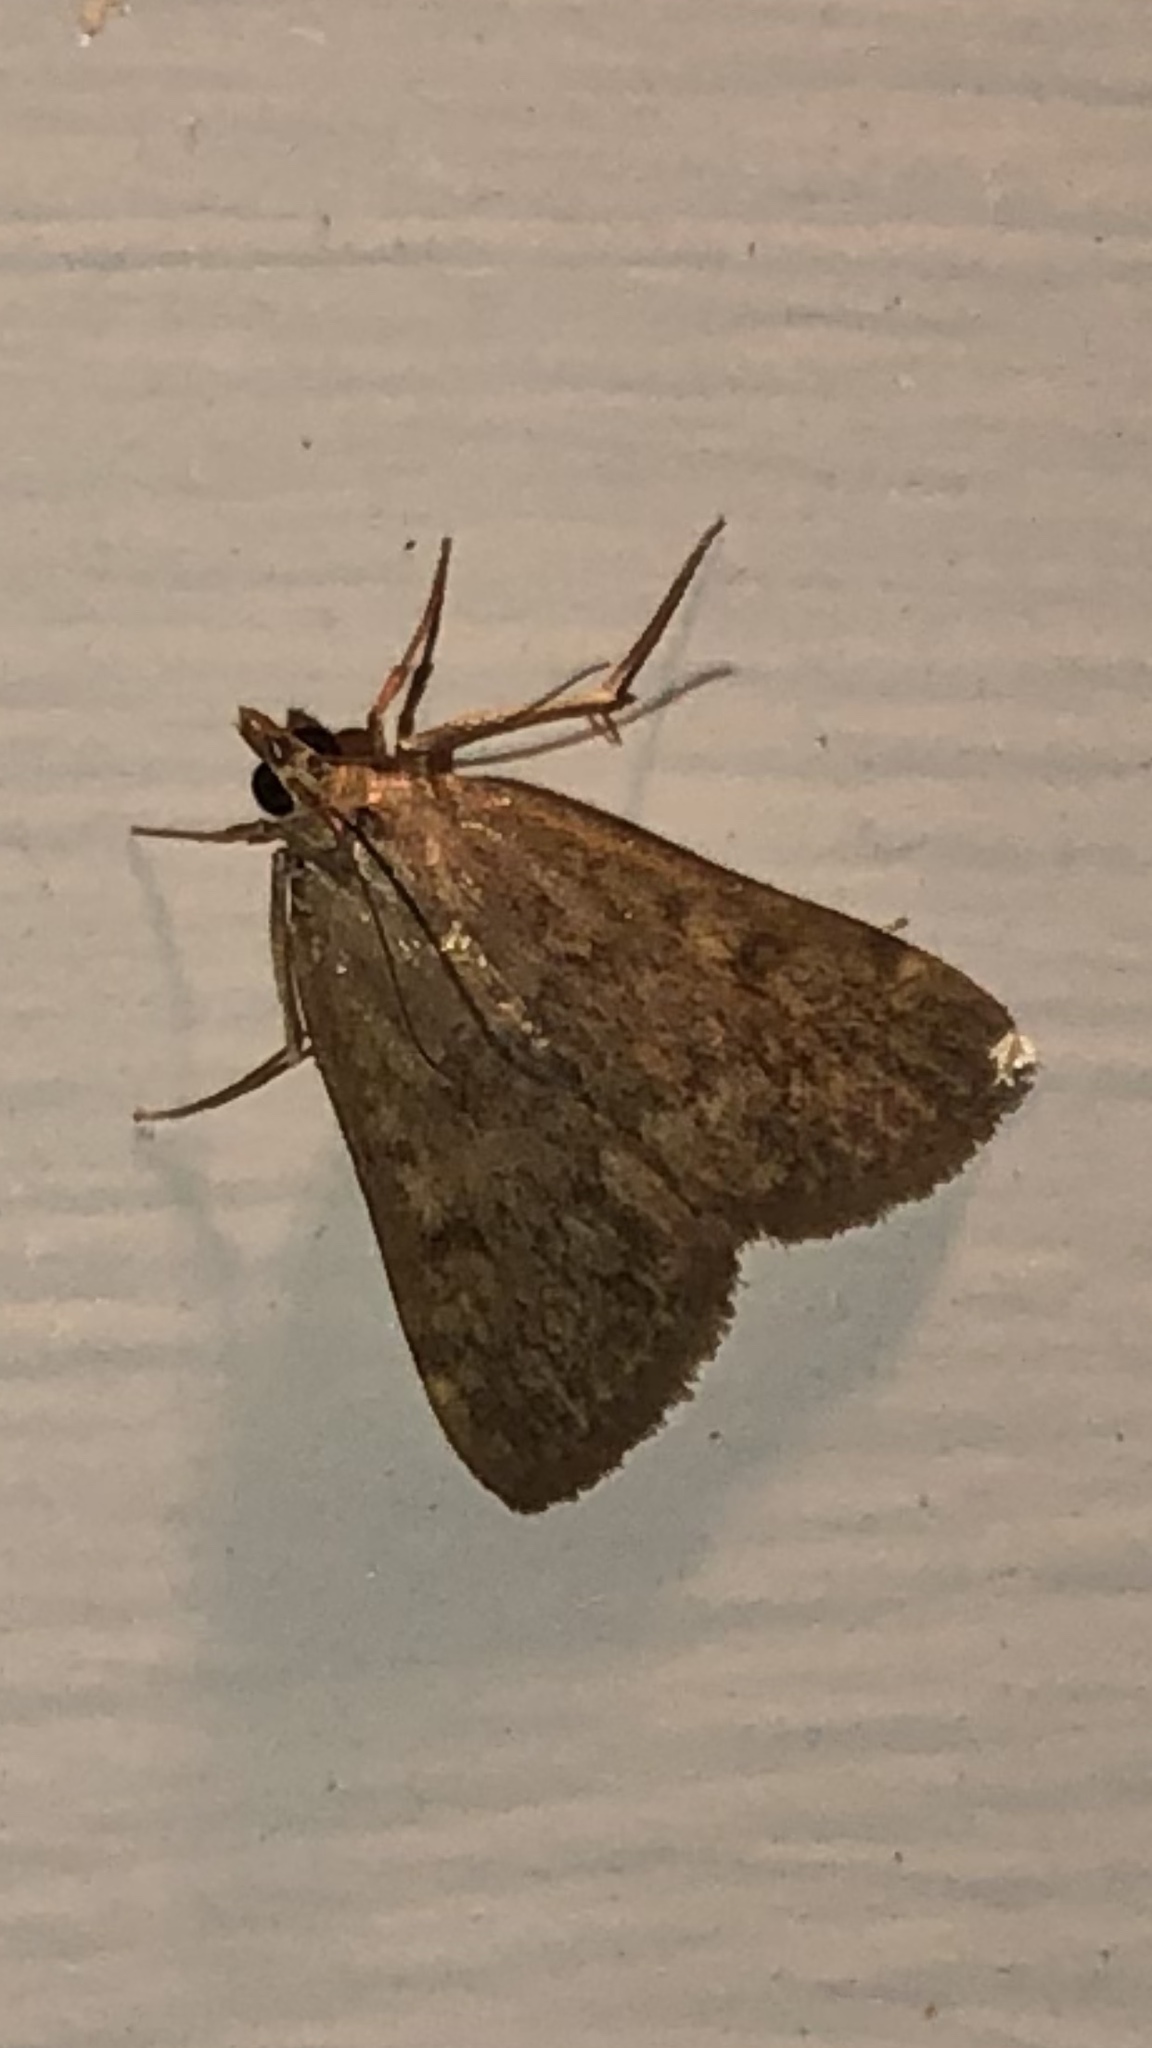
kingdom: Animalia
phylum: Arthropoda
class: Insecta
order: Lepidoptera
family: Crambidae
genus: Achyra
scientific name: Achyra rantalis
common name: Garden webworm
